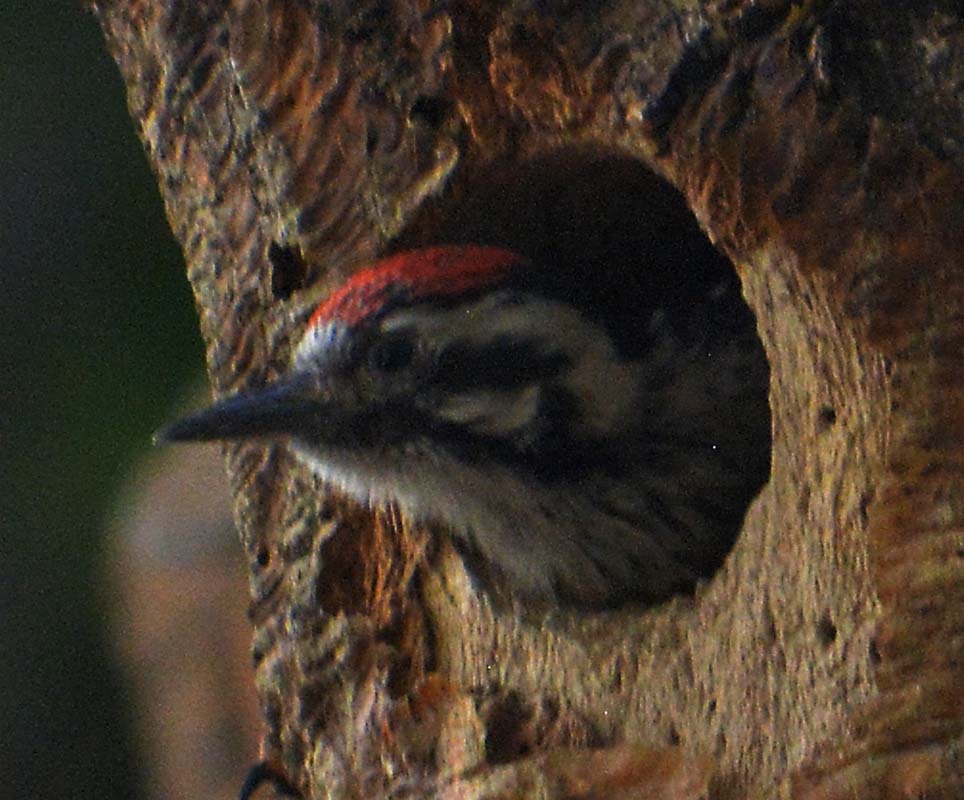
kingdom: Animalia
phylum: Chordata
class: Aves
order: Piciformes
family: Picidae
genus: Dryobates
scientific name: Dryobates scalaris
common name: Ladder-backed woodpecker
